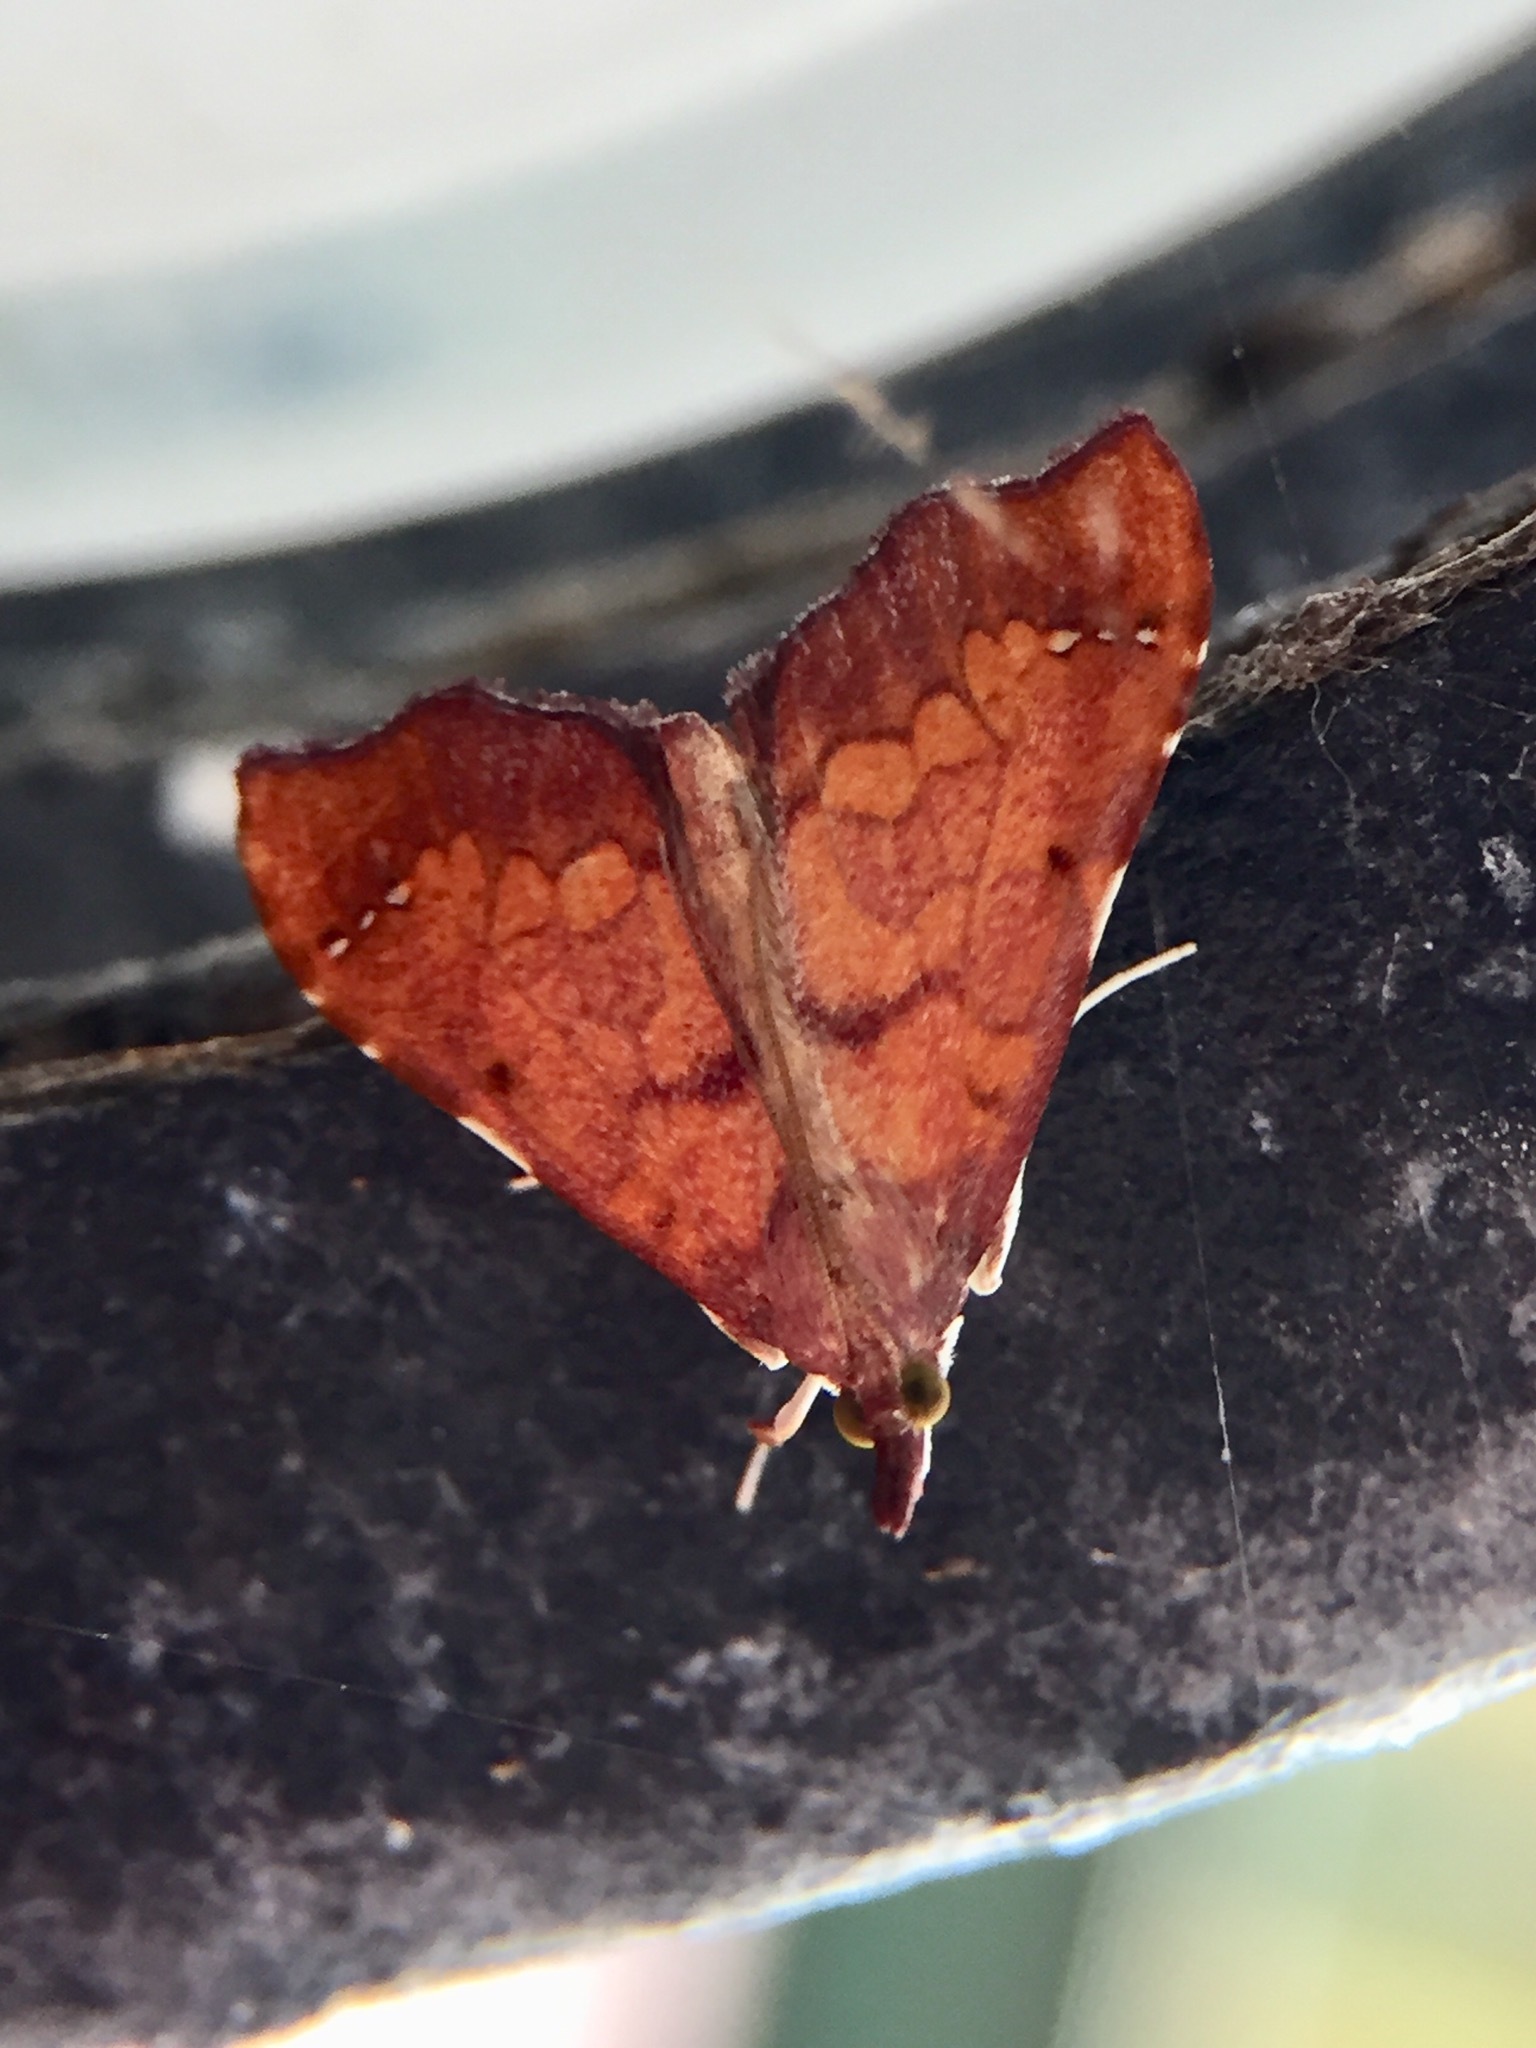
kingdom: Animalia
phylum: Arthropoda
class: Insecta
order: Lepidoptera
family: Crambidae
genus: Deana
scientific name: Deana hybreasalis
